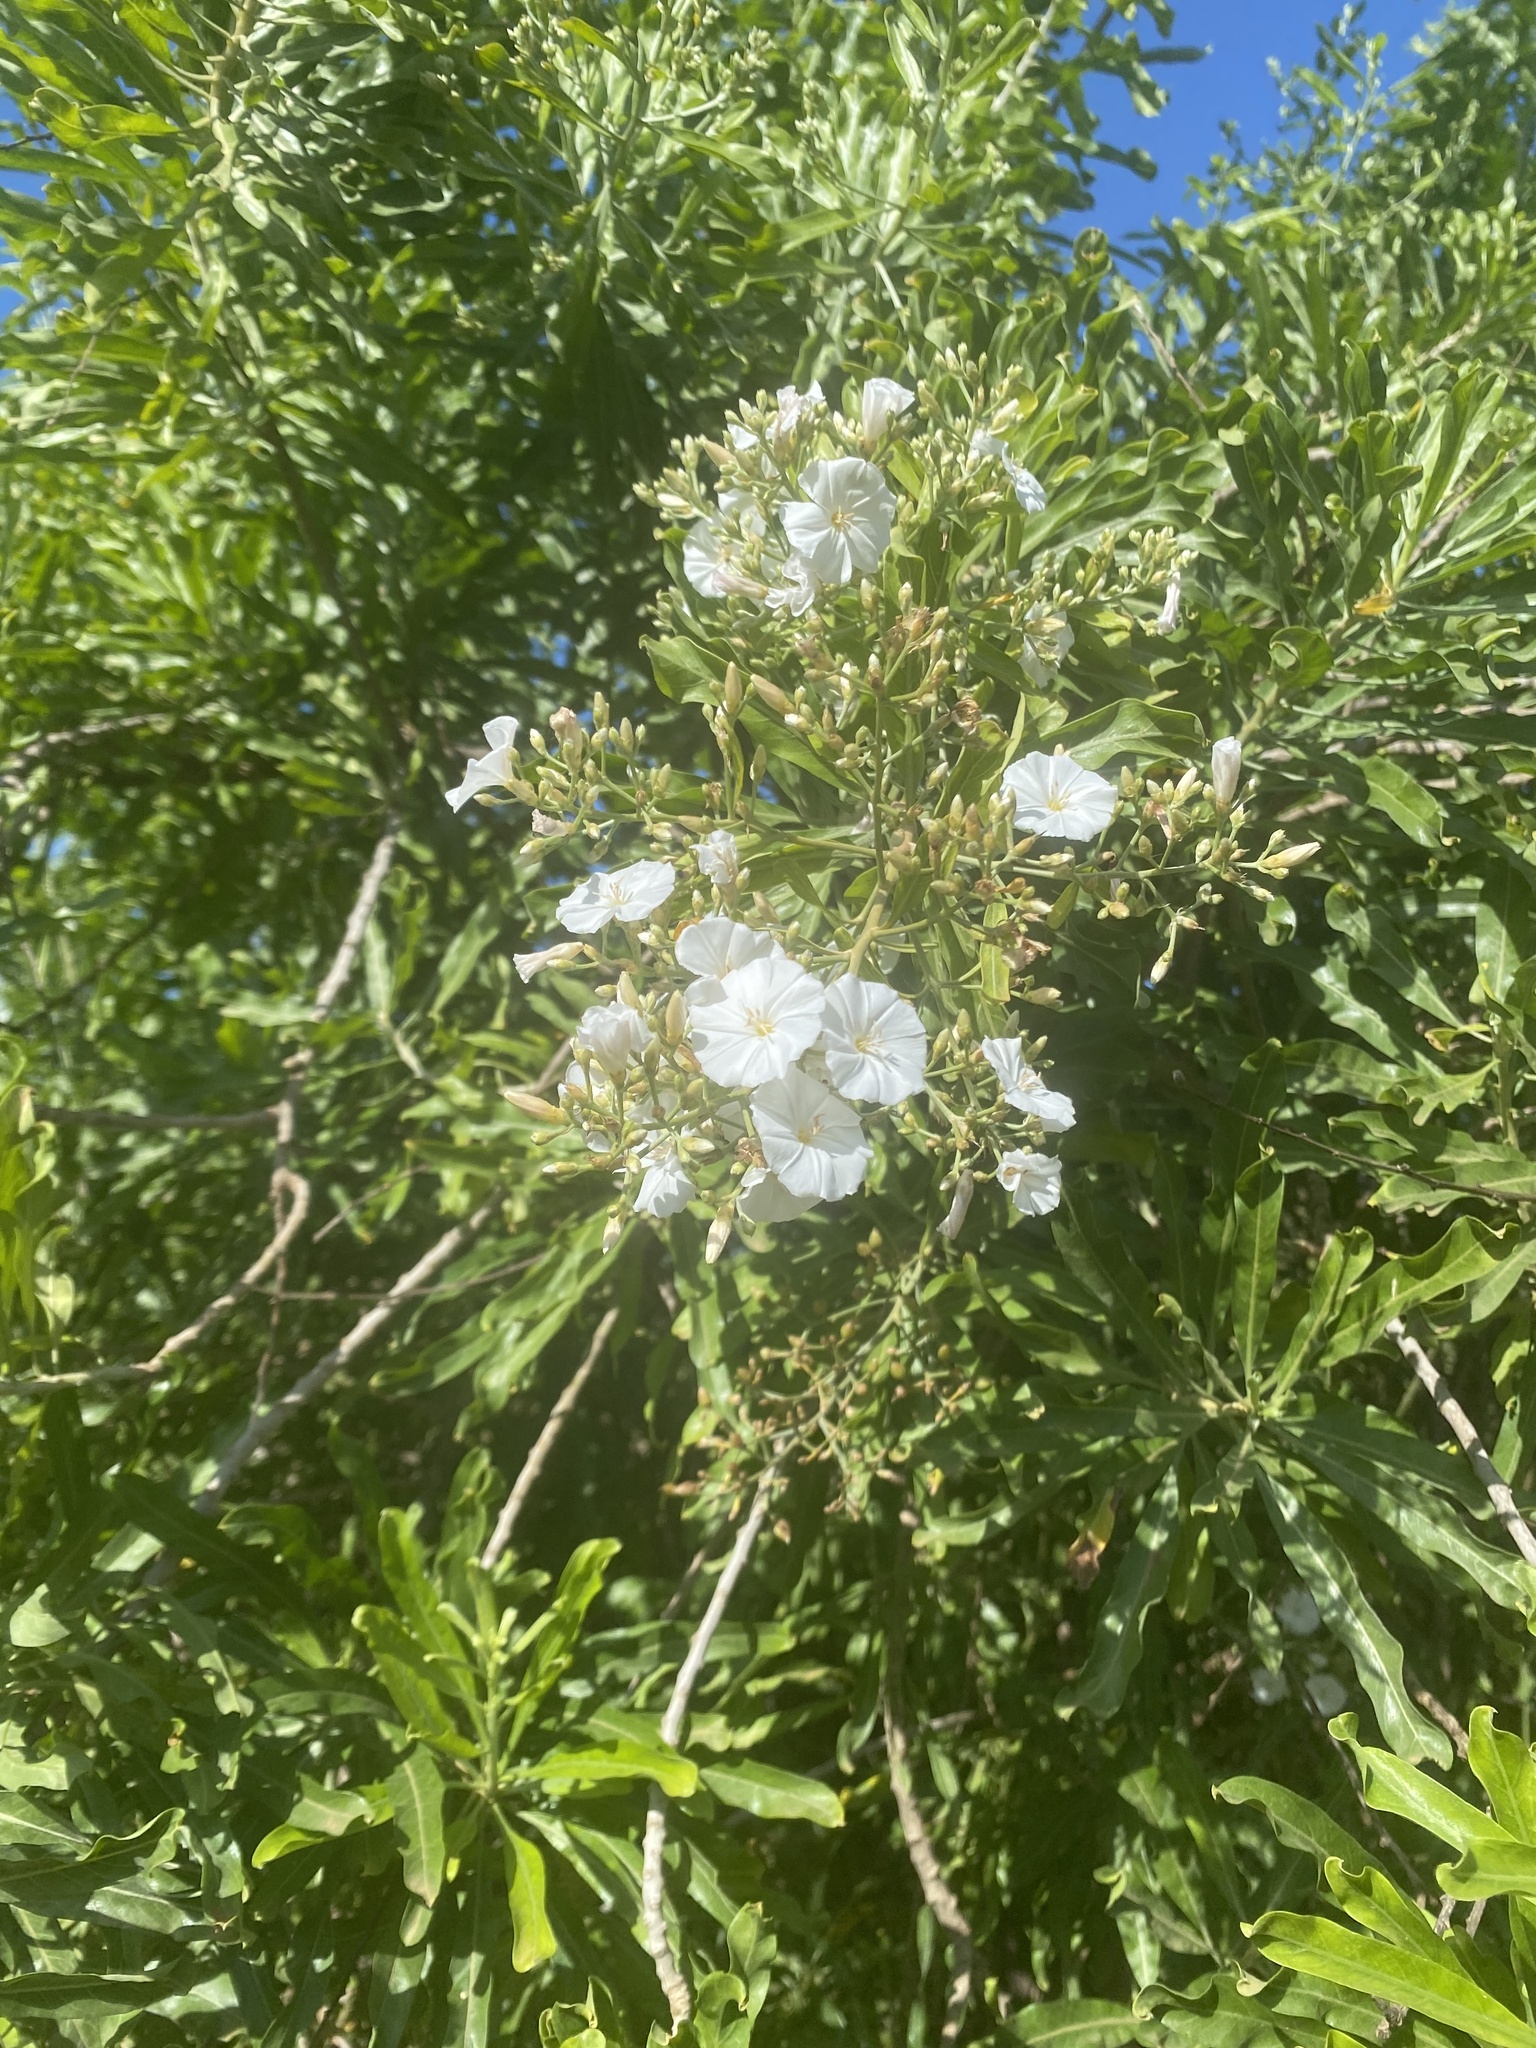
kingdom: Plantae
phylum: Tracheophyta
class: Magnoliopsida
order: Solanales
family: Convolvulaceae
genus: Convolvulus
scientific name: Convolvulus floridus
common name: Guadil
